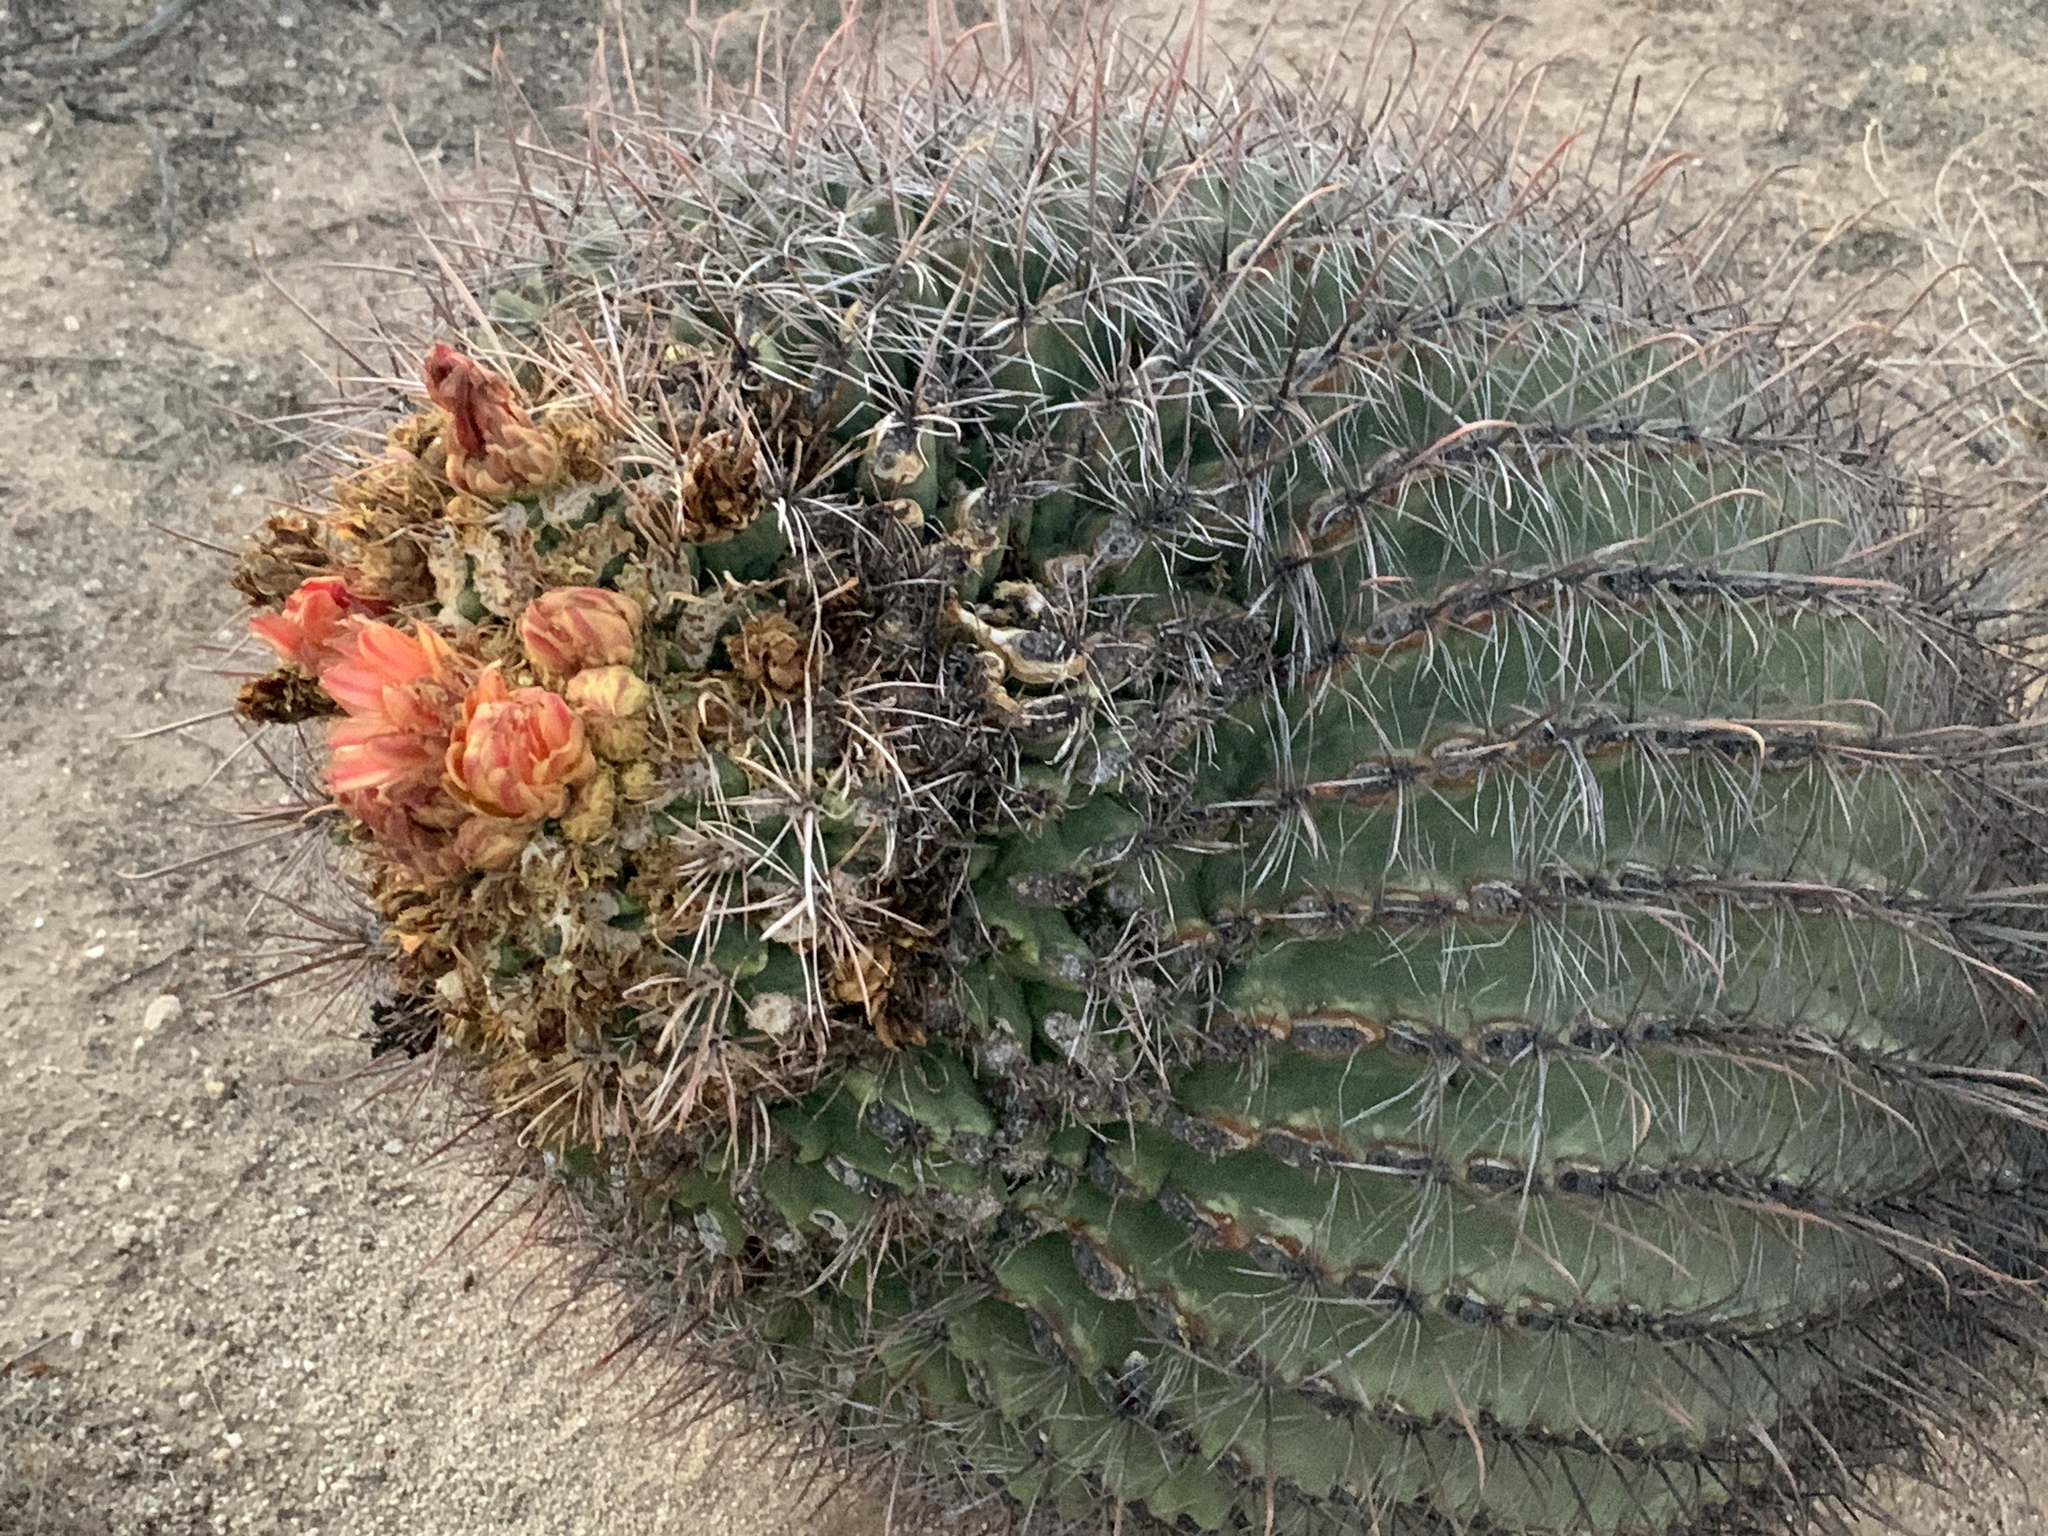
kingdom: Plantae
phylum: Tracheophyta
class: Magnoliopsida
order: Caryophyllales
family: Cactaceae
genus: Ferocactus
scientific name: Ferocactus wislizeni
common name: Candy barrel cactus
